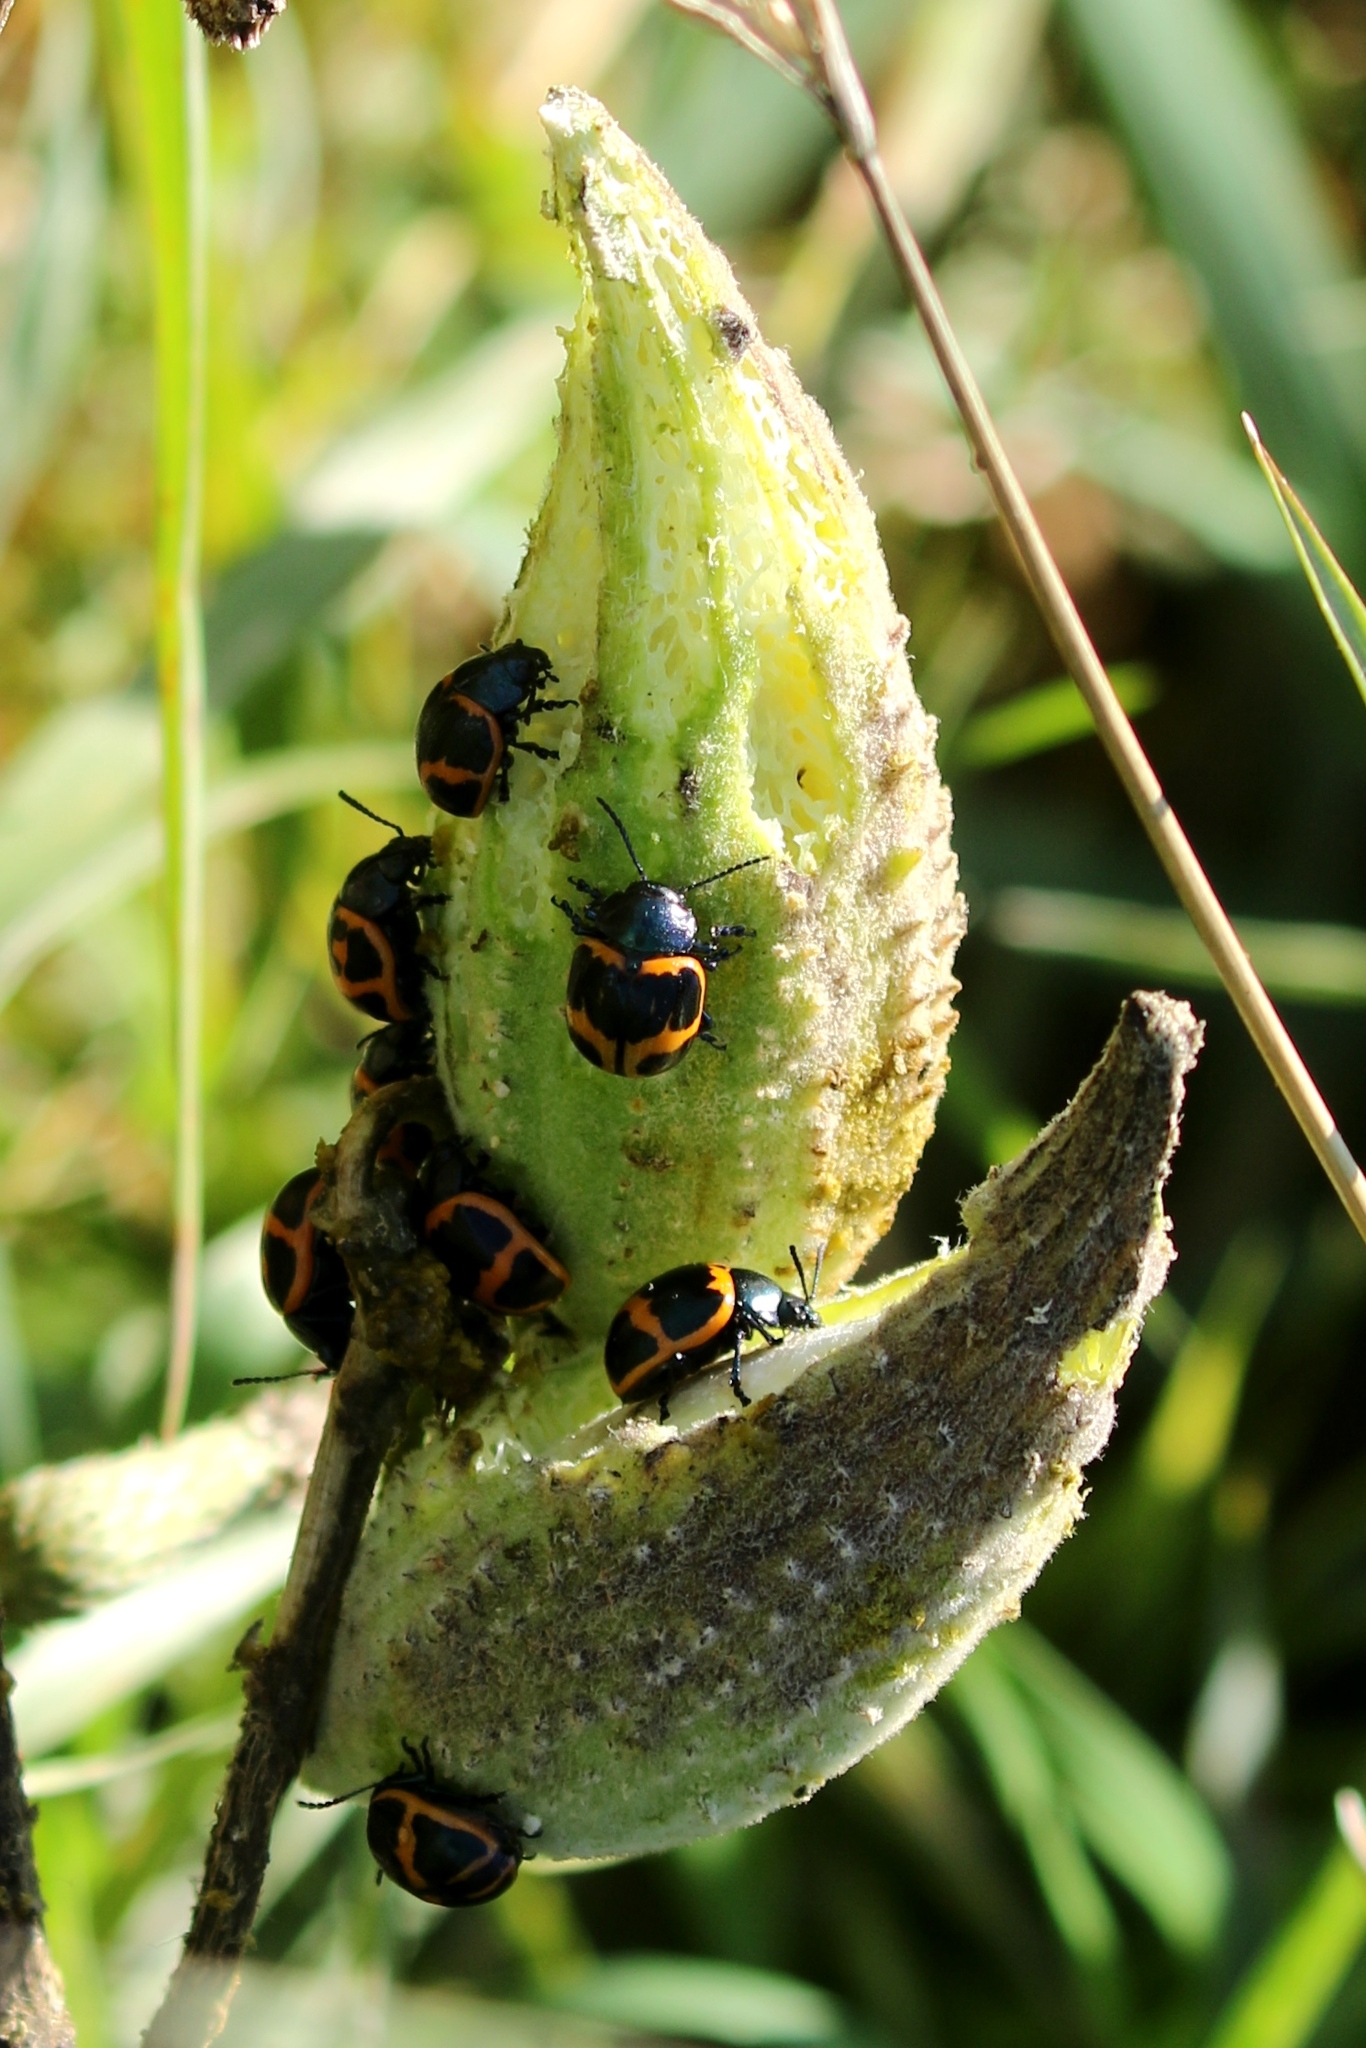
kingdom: Animalia
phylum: Arthropoda
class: Insecta
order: Coleoptera
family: Chrysomelidae
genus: Labidomera
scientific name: Labidomera clivicollis
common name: Swamp milkweed leaf beetle
